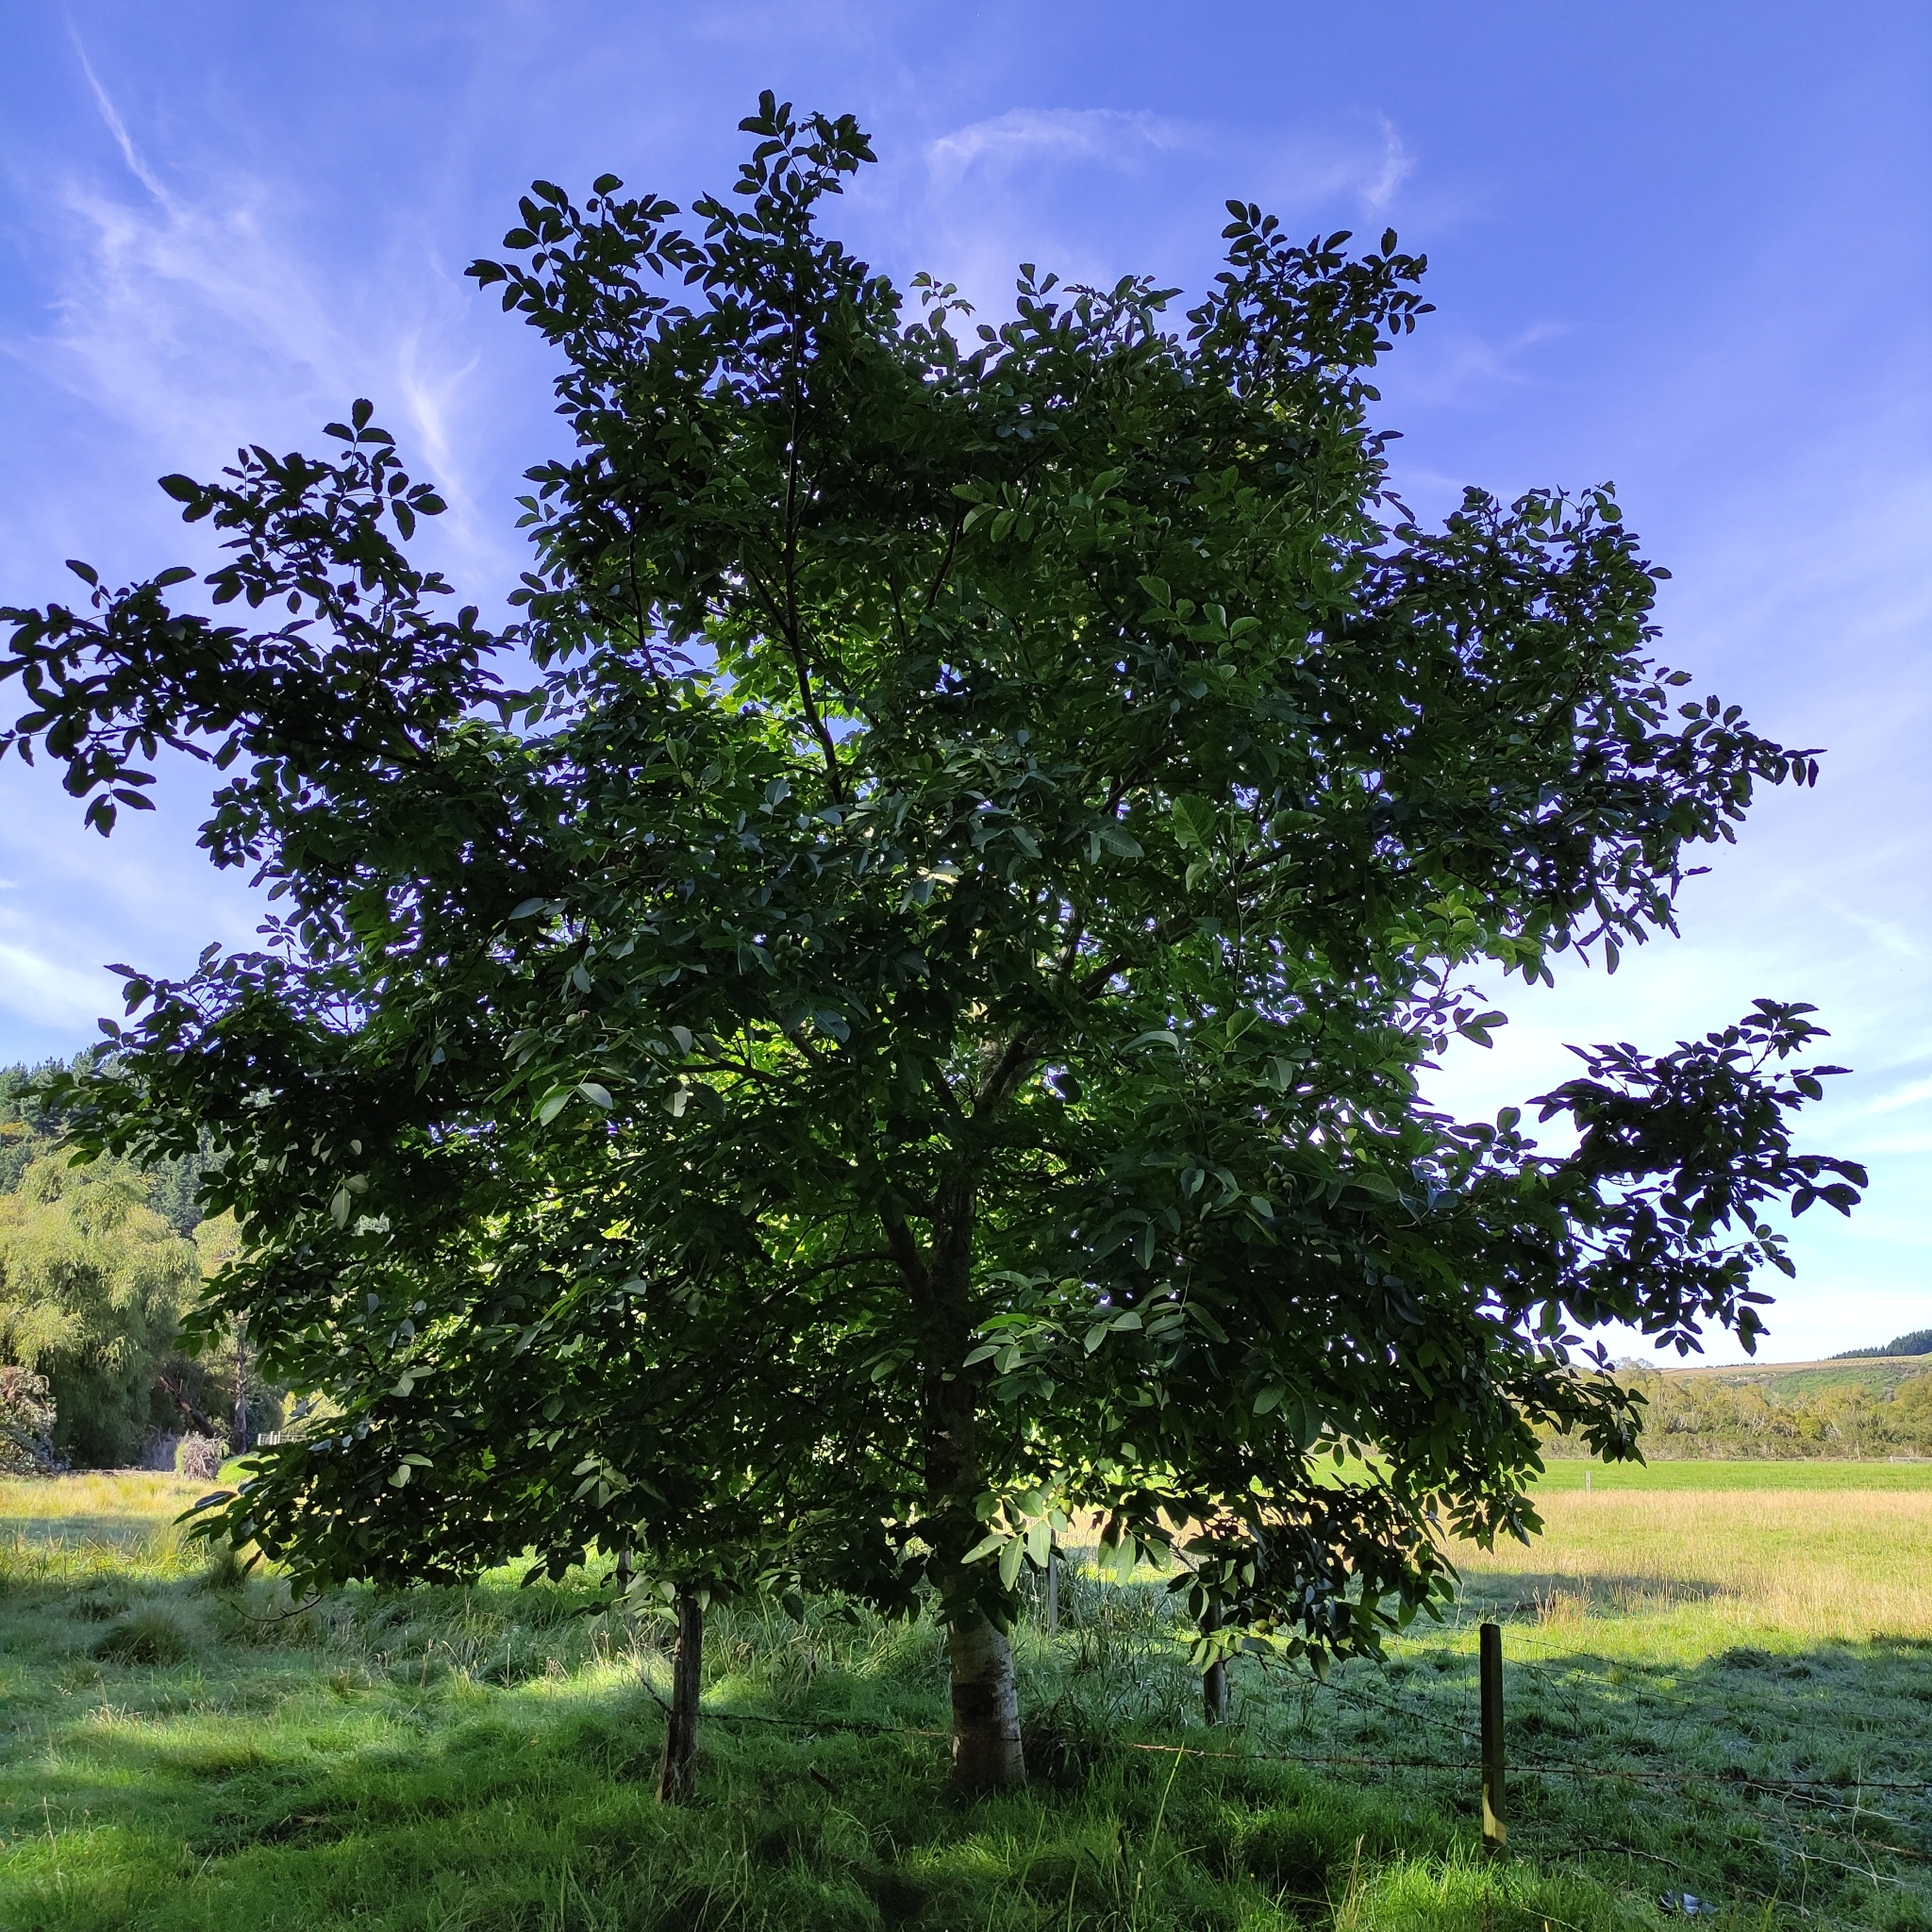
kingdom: Plantae
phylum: Tracheophyta
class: Magnoliopsida
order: Fagales
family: Juglandaceae
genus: Juglans
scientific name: Juglans regia
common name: Walnut
